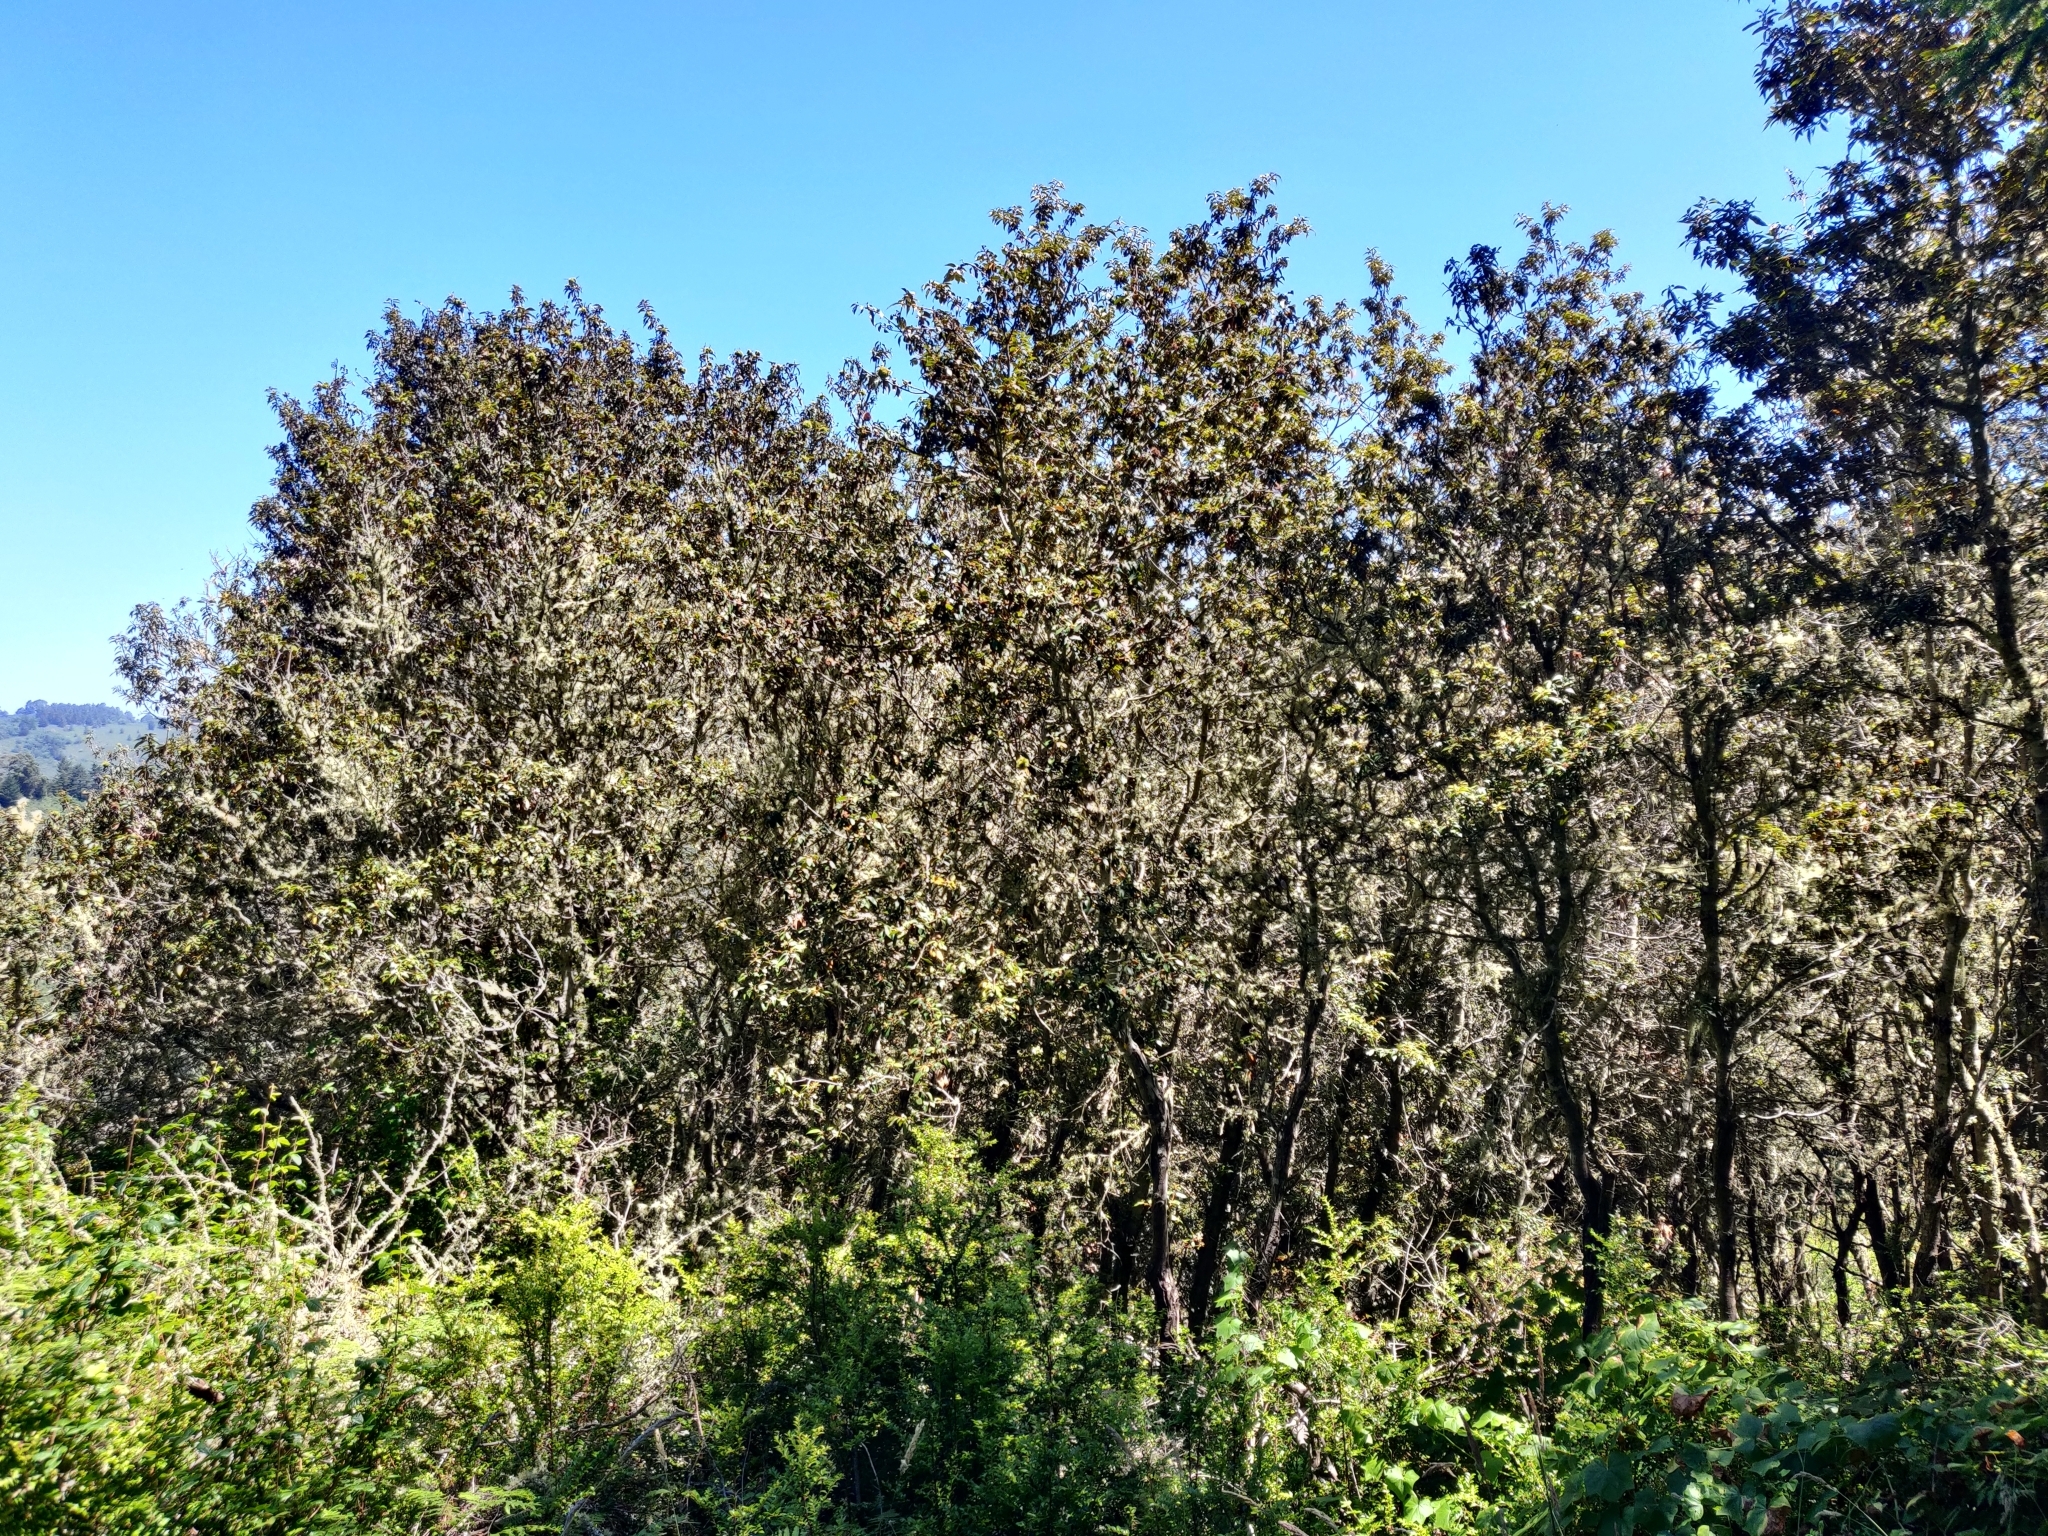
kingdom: Plantae
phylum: Tracheophyta
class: Magnoliopsida
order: Fagales
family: Fagaceae
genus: Chrysolepis
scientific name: Chrysolepis chrysophylla
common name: Giant chinquapin
